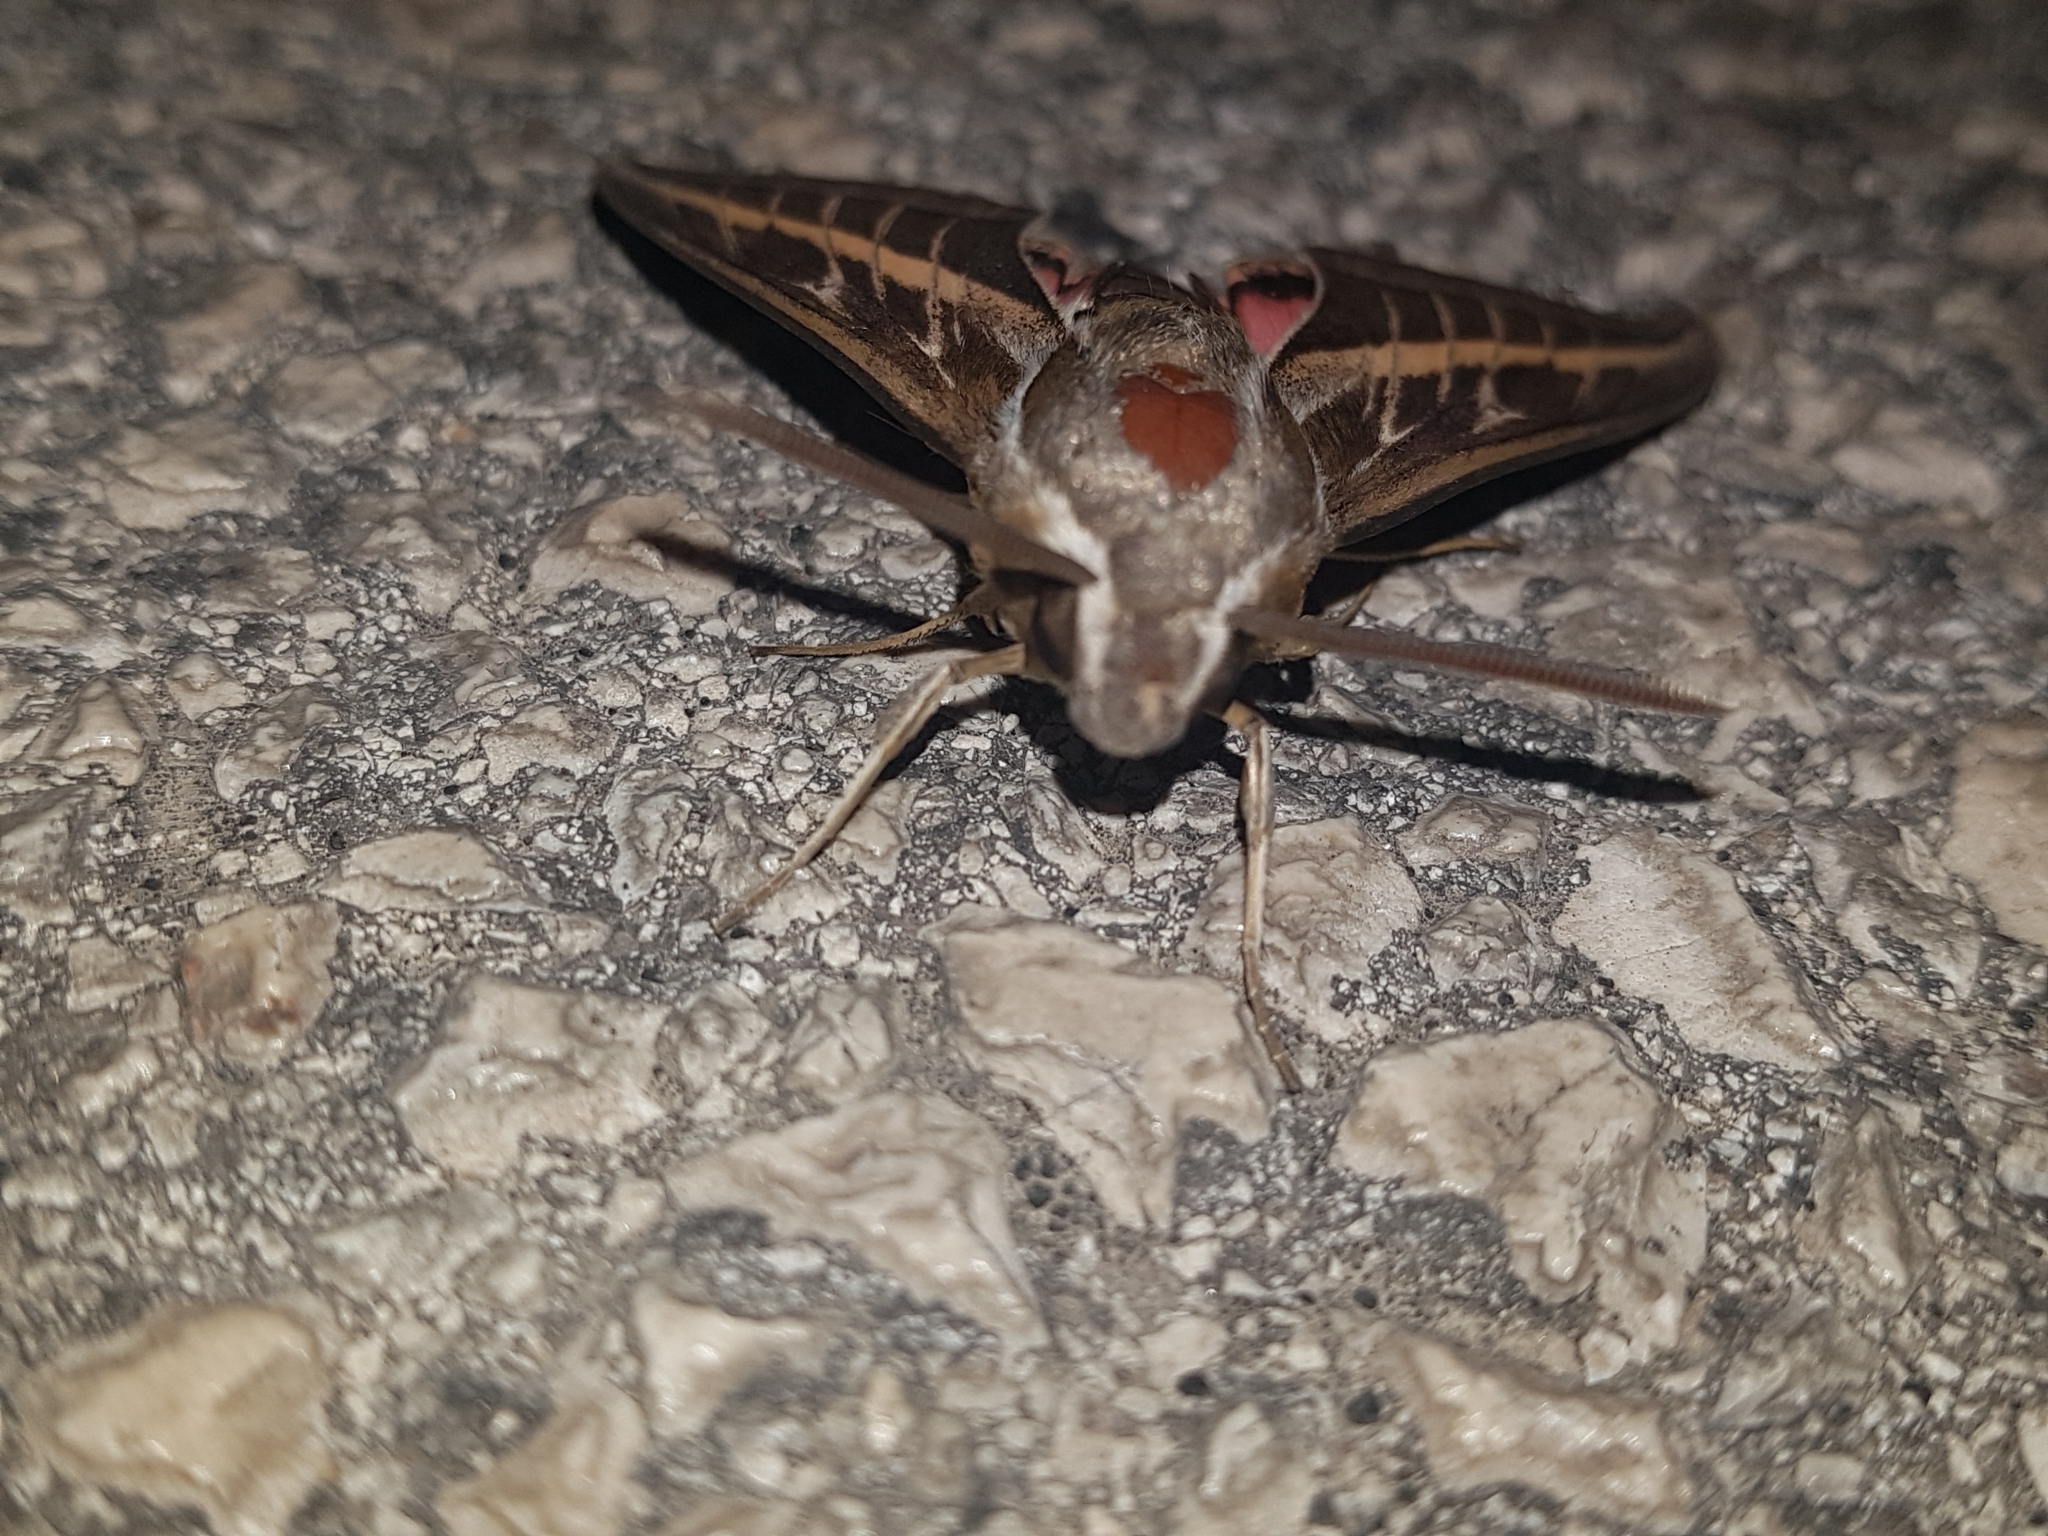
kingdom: Animalia
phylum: Arthropoda
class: Insecta
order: Lepidoptera
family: Sphingidae
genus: Hyles
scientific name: Hyles livornica
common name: Striped hawk-moth
